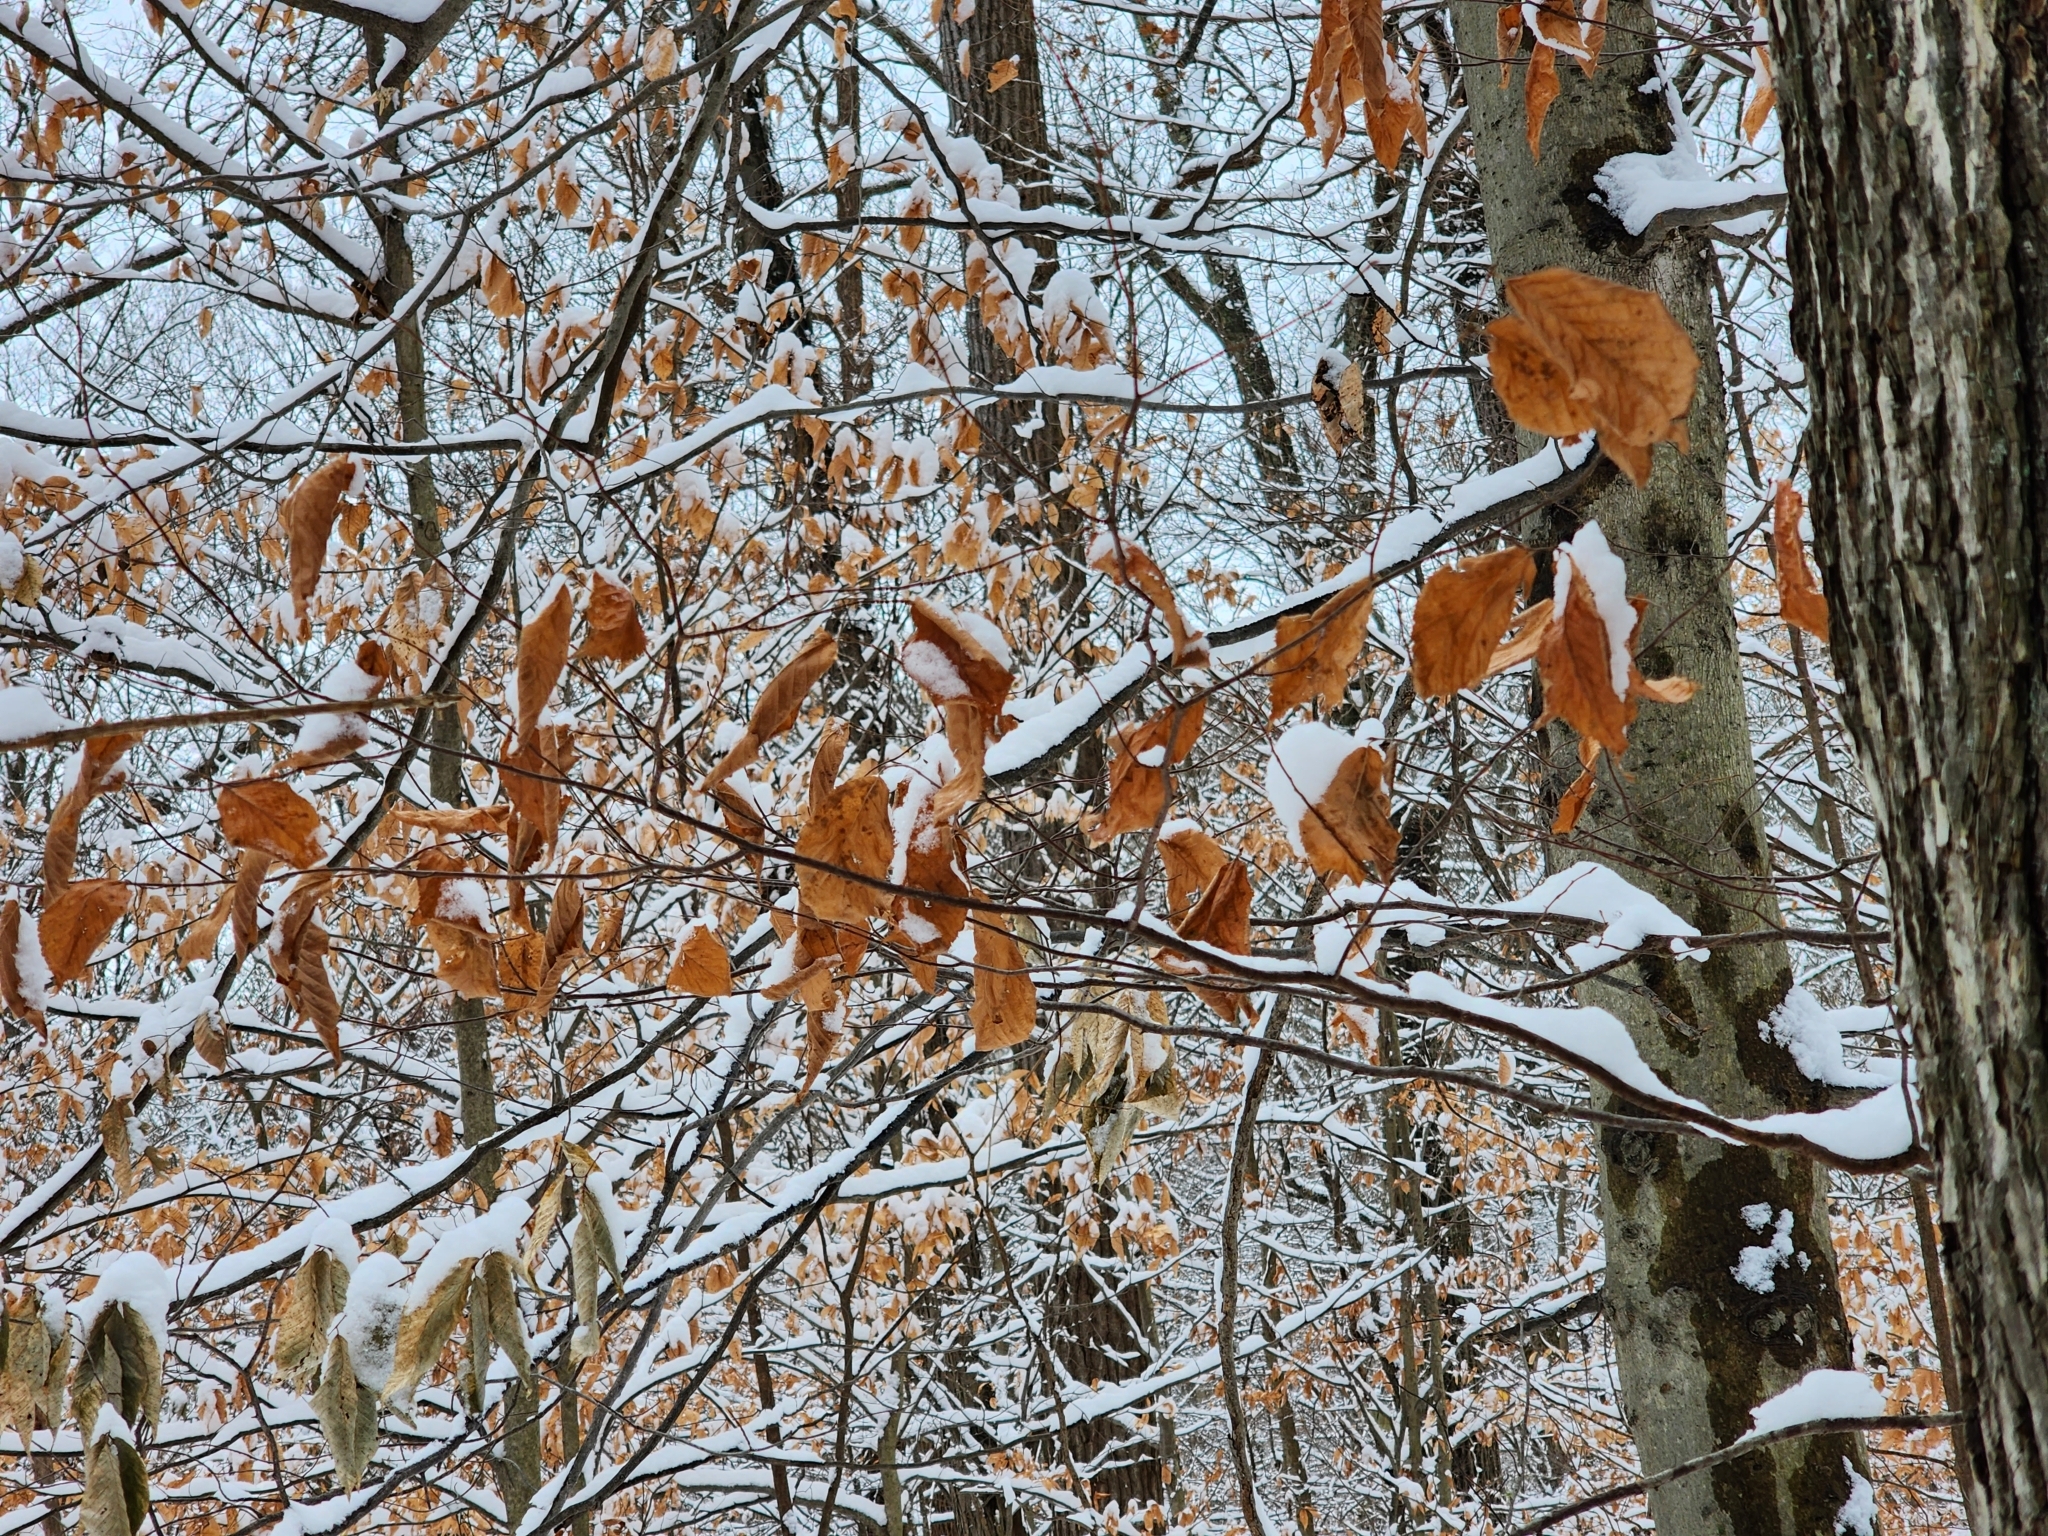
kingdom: Plantae
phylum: Tracheophyta
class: Magnoliopsida
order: Fagales
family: Fagaceae
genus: Fagus
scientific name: Fagus grandifolia
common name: American beech
